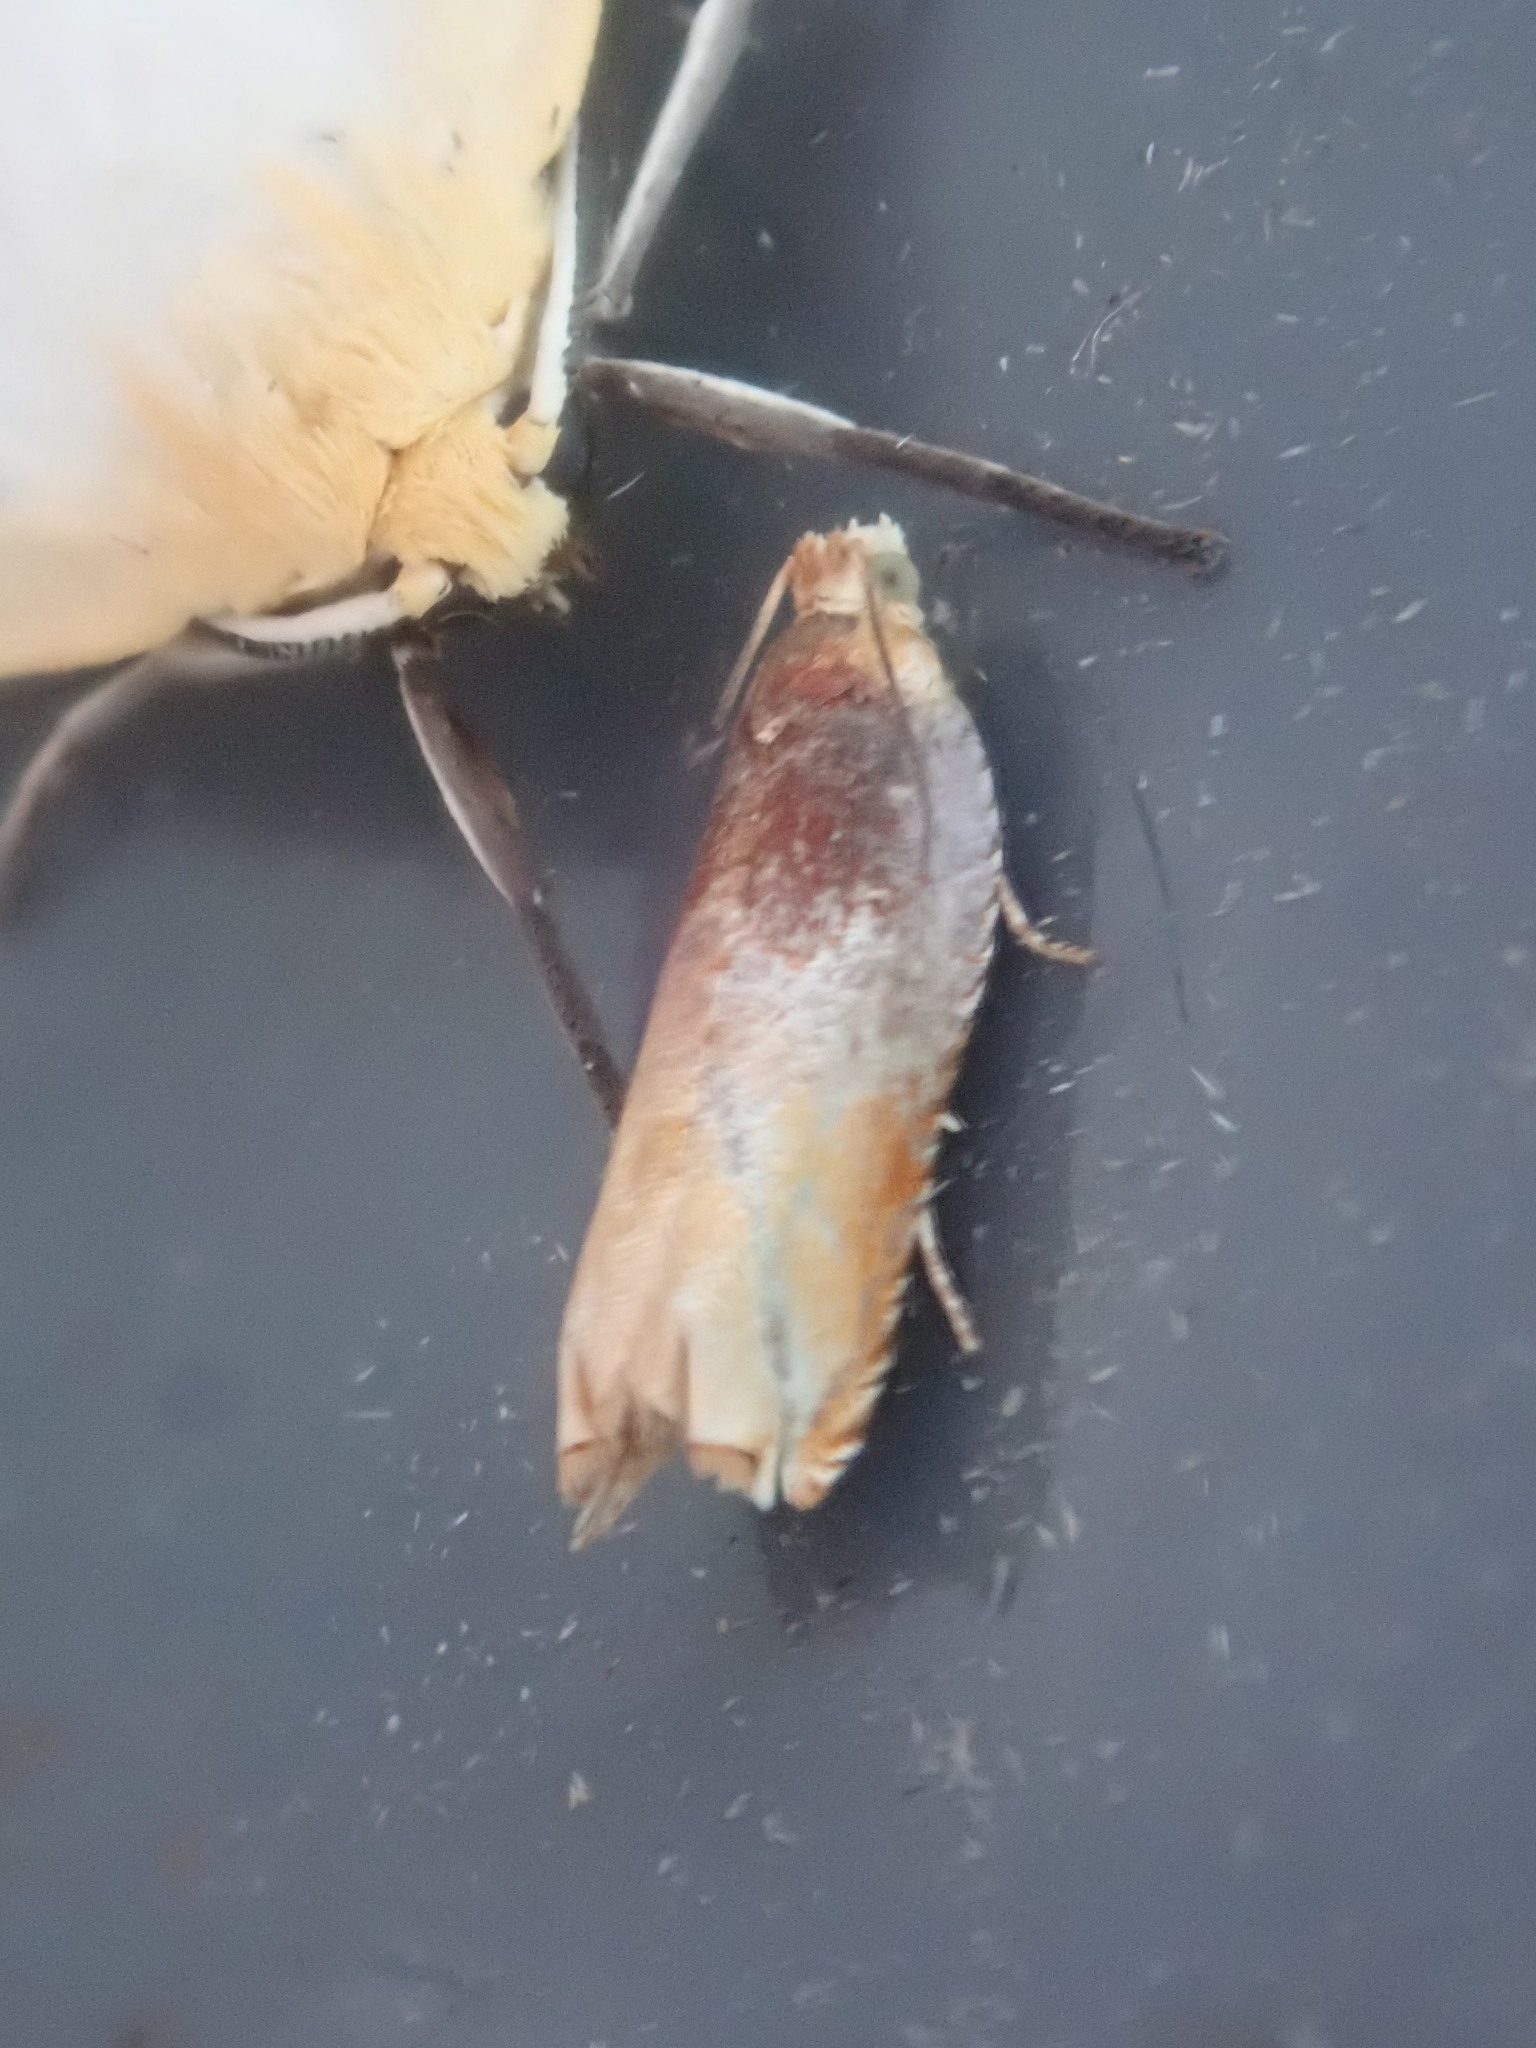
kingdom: Animalia
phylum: Arthropoda
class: Insecta
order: Lepidoptera
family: Tortricidae
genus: Ancylis
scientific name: Ancylis divisana
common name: Two-toned ancylis moth
